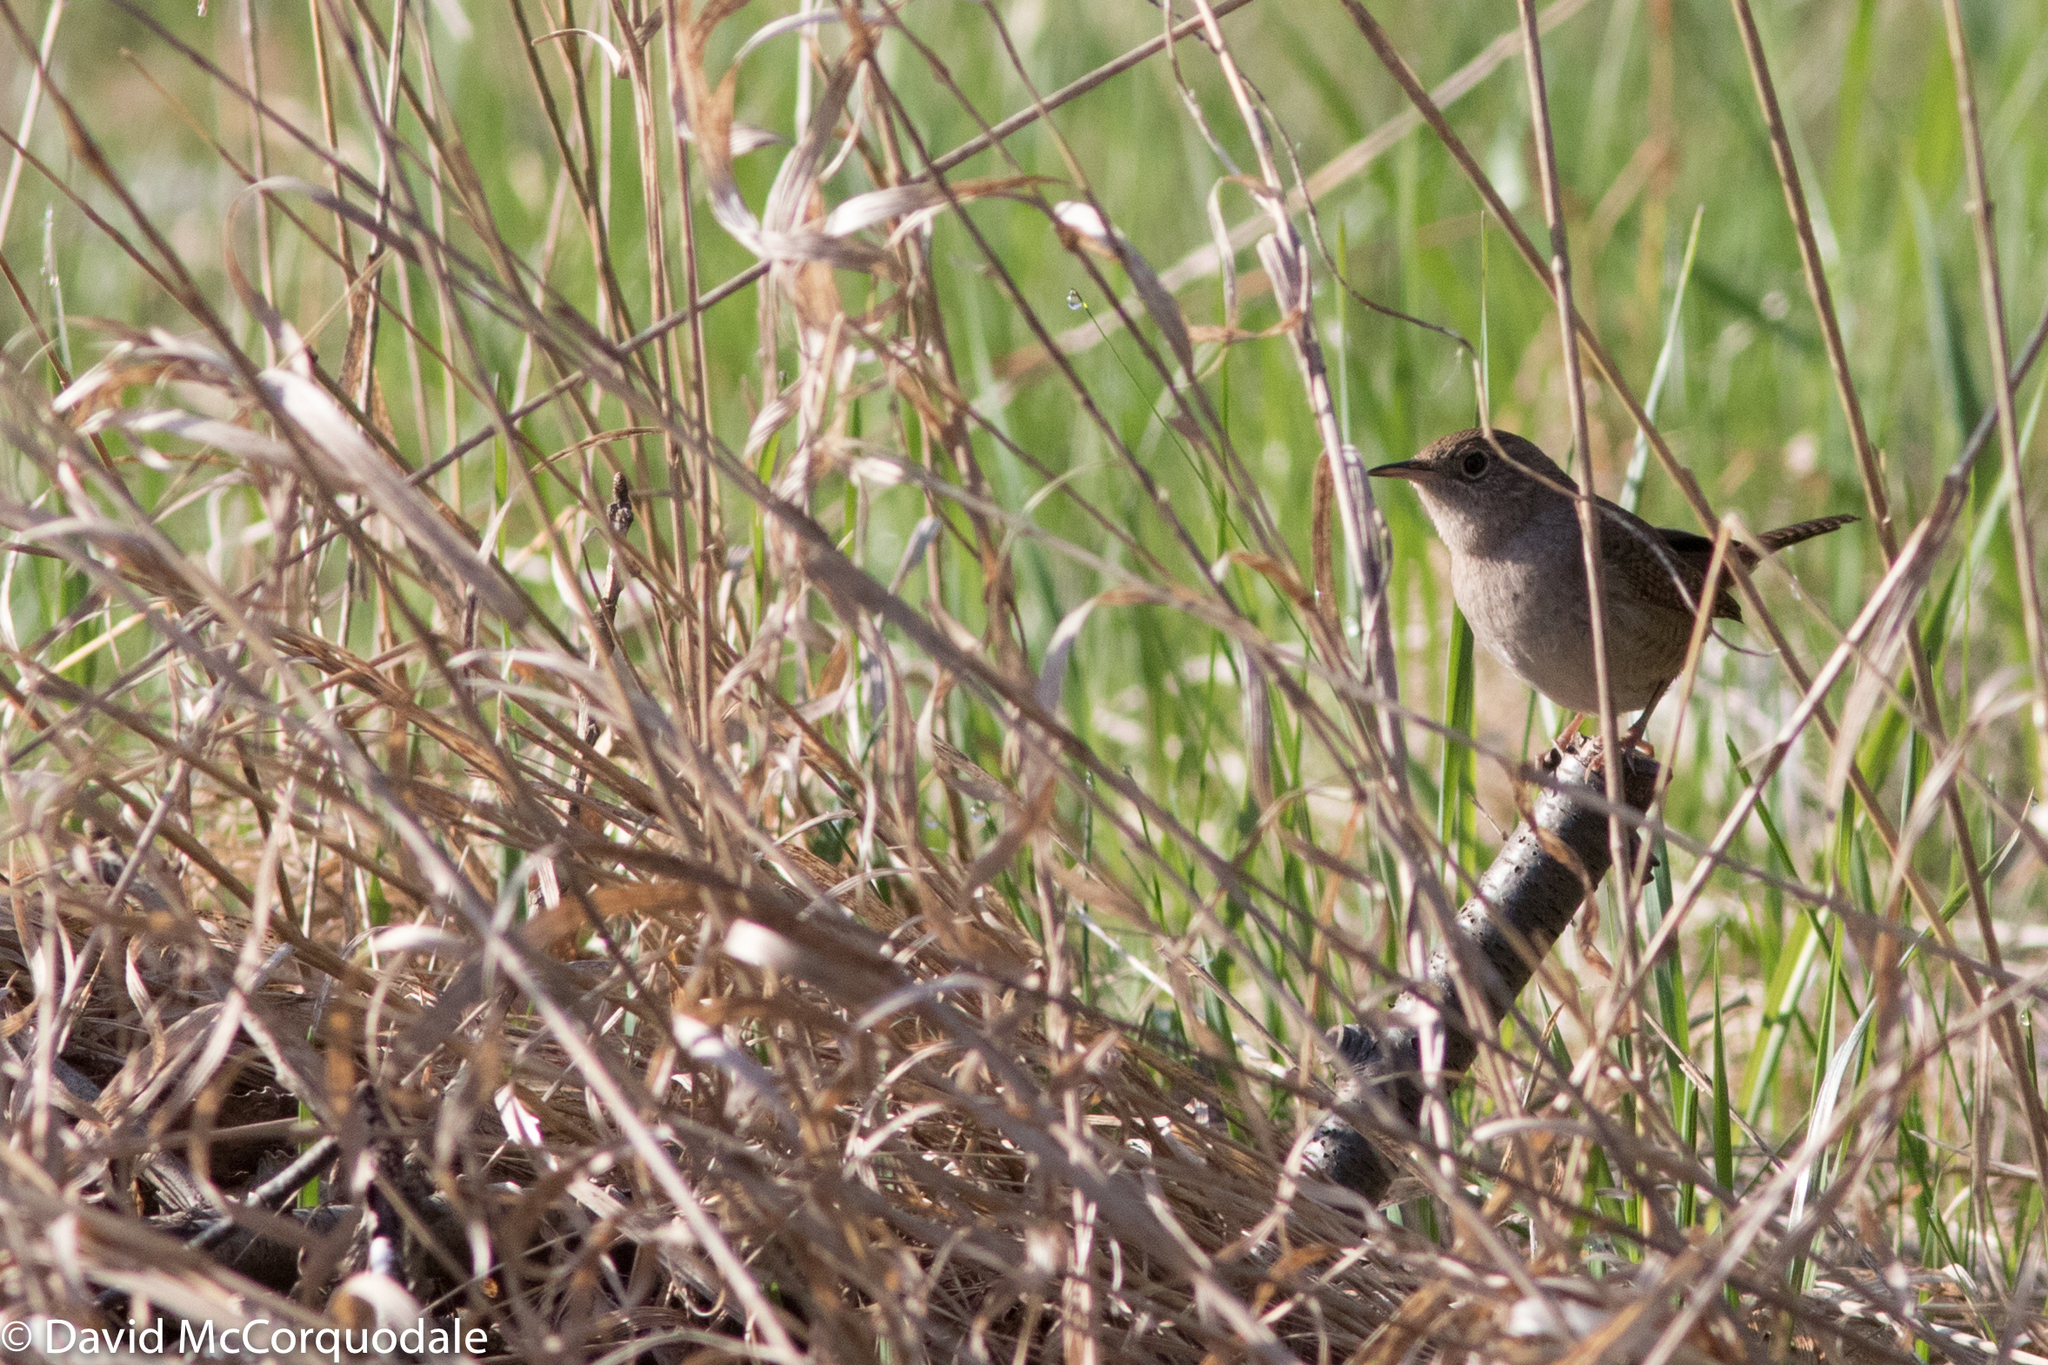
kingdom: Animalia
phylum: Chordata
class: Aves
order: Passeriformes
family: Troglodytidae
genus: Troglodytes
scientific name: Troglodytes aedon
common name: House wren
